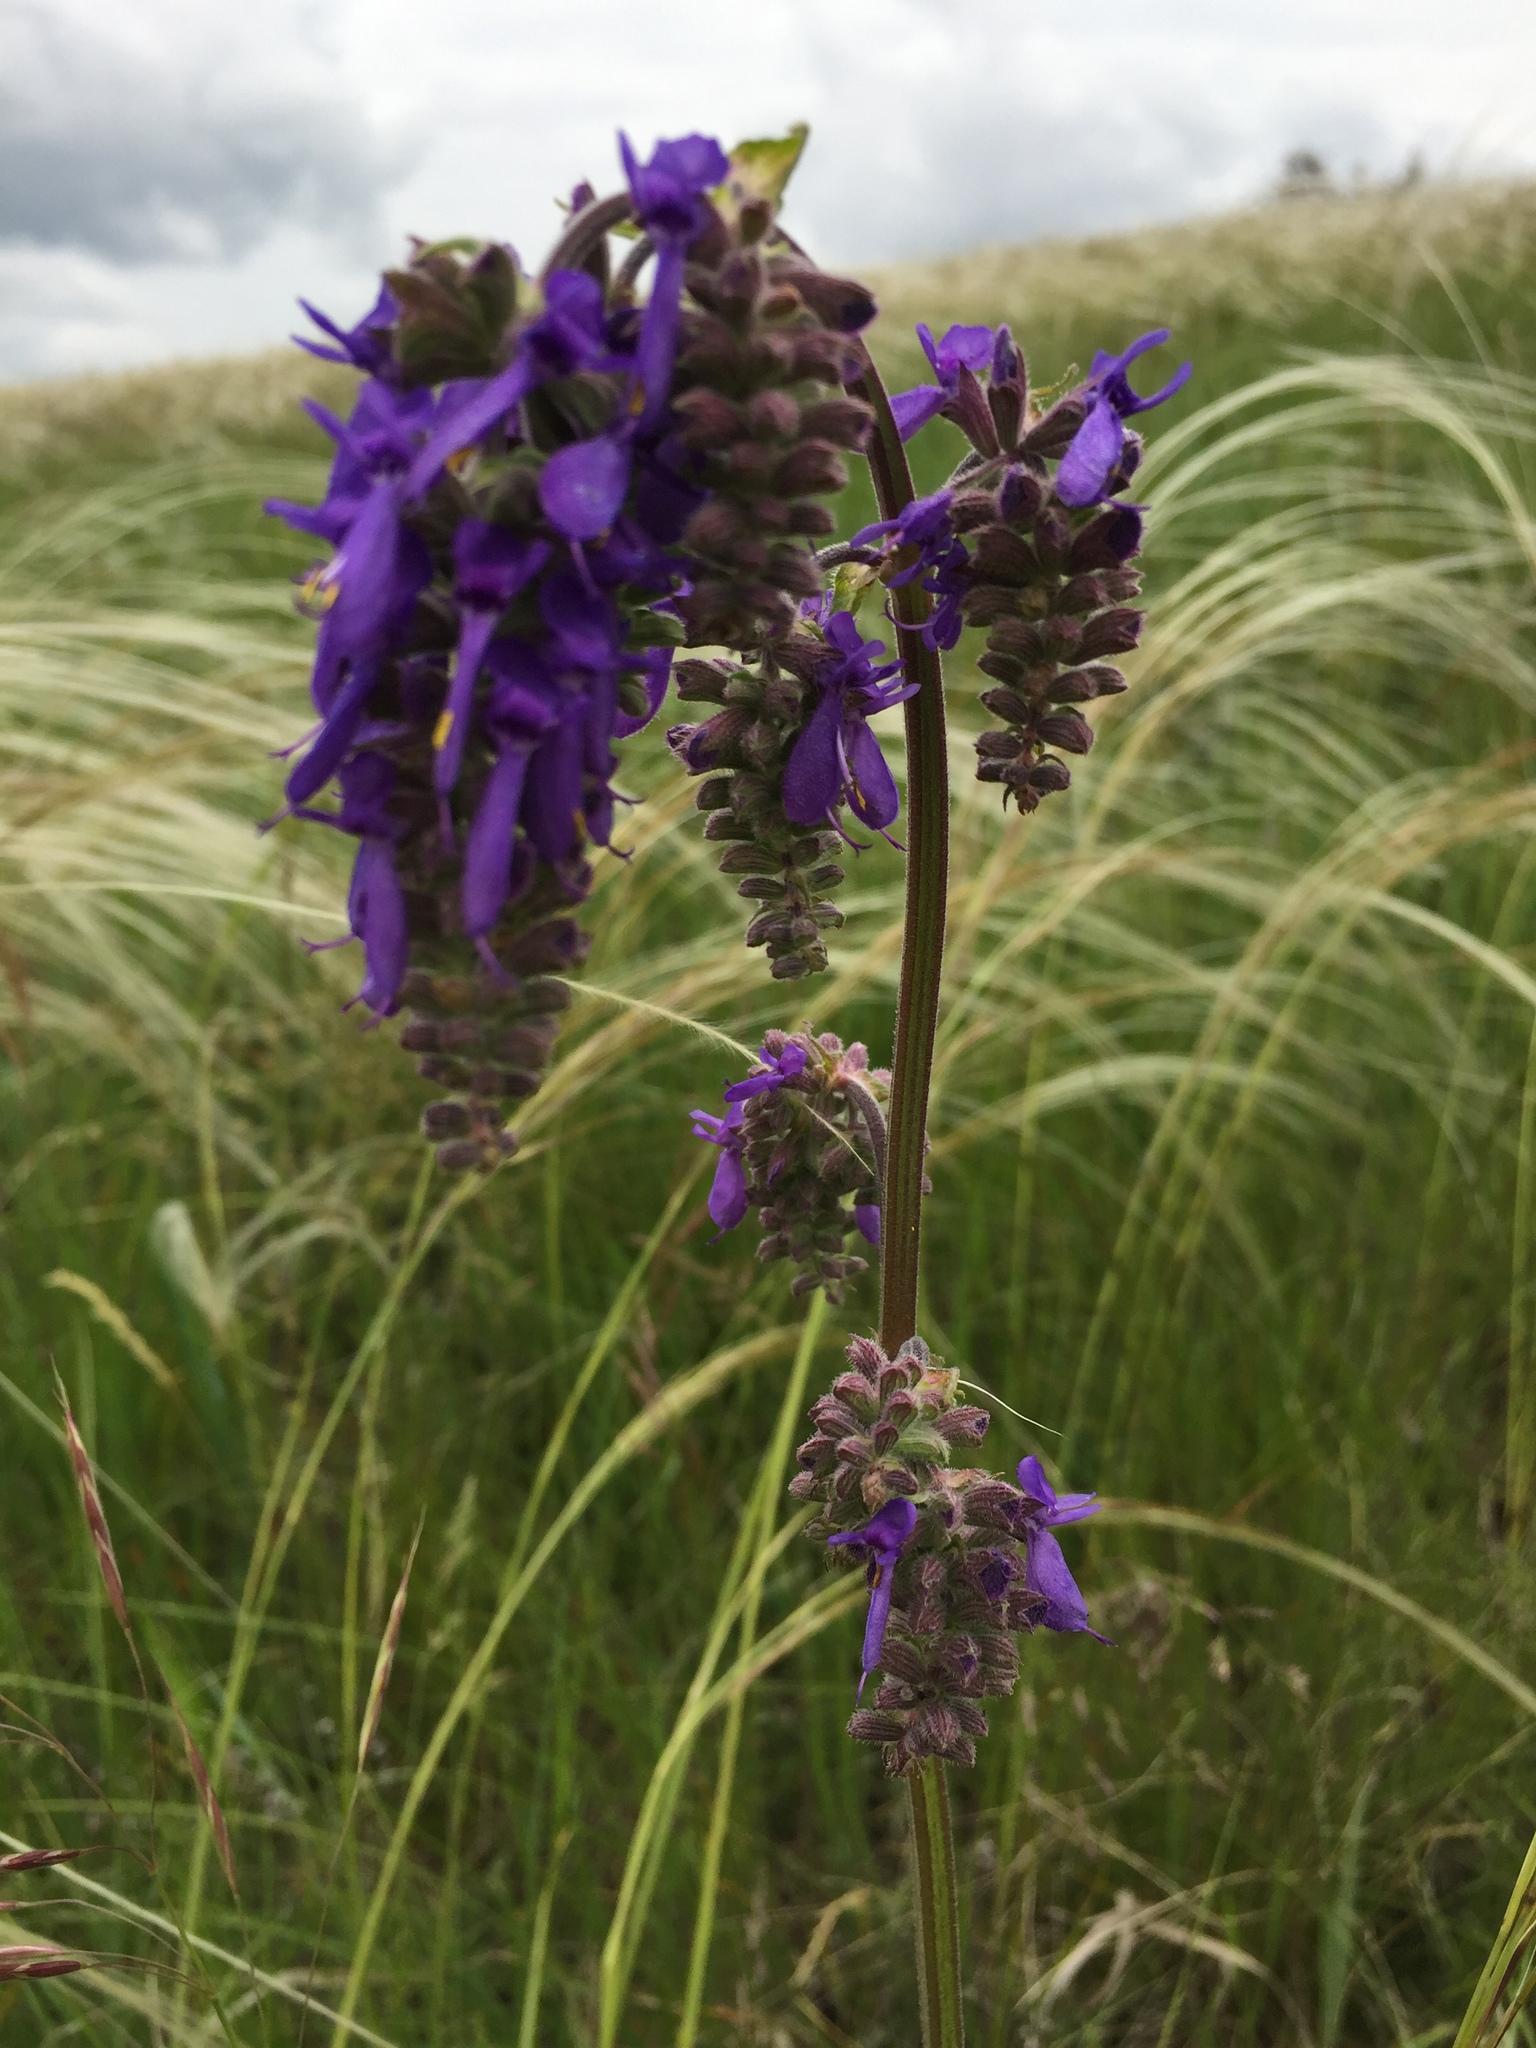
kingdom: Plantae
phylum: Tracheophyta
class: Magnoliopsida
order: Lamiales
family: Lamiaceae
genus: Salvia
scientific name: Salvia nutans
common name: Nodding sage
